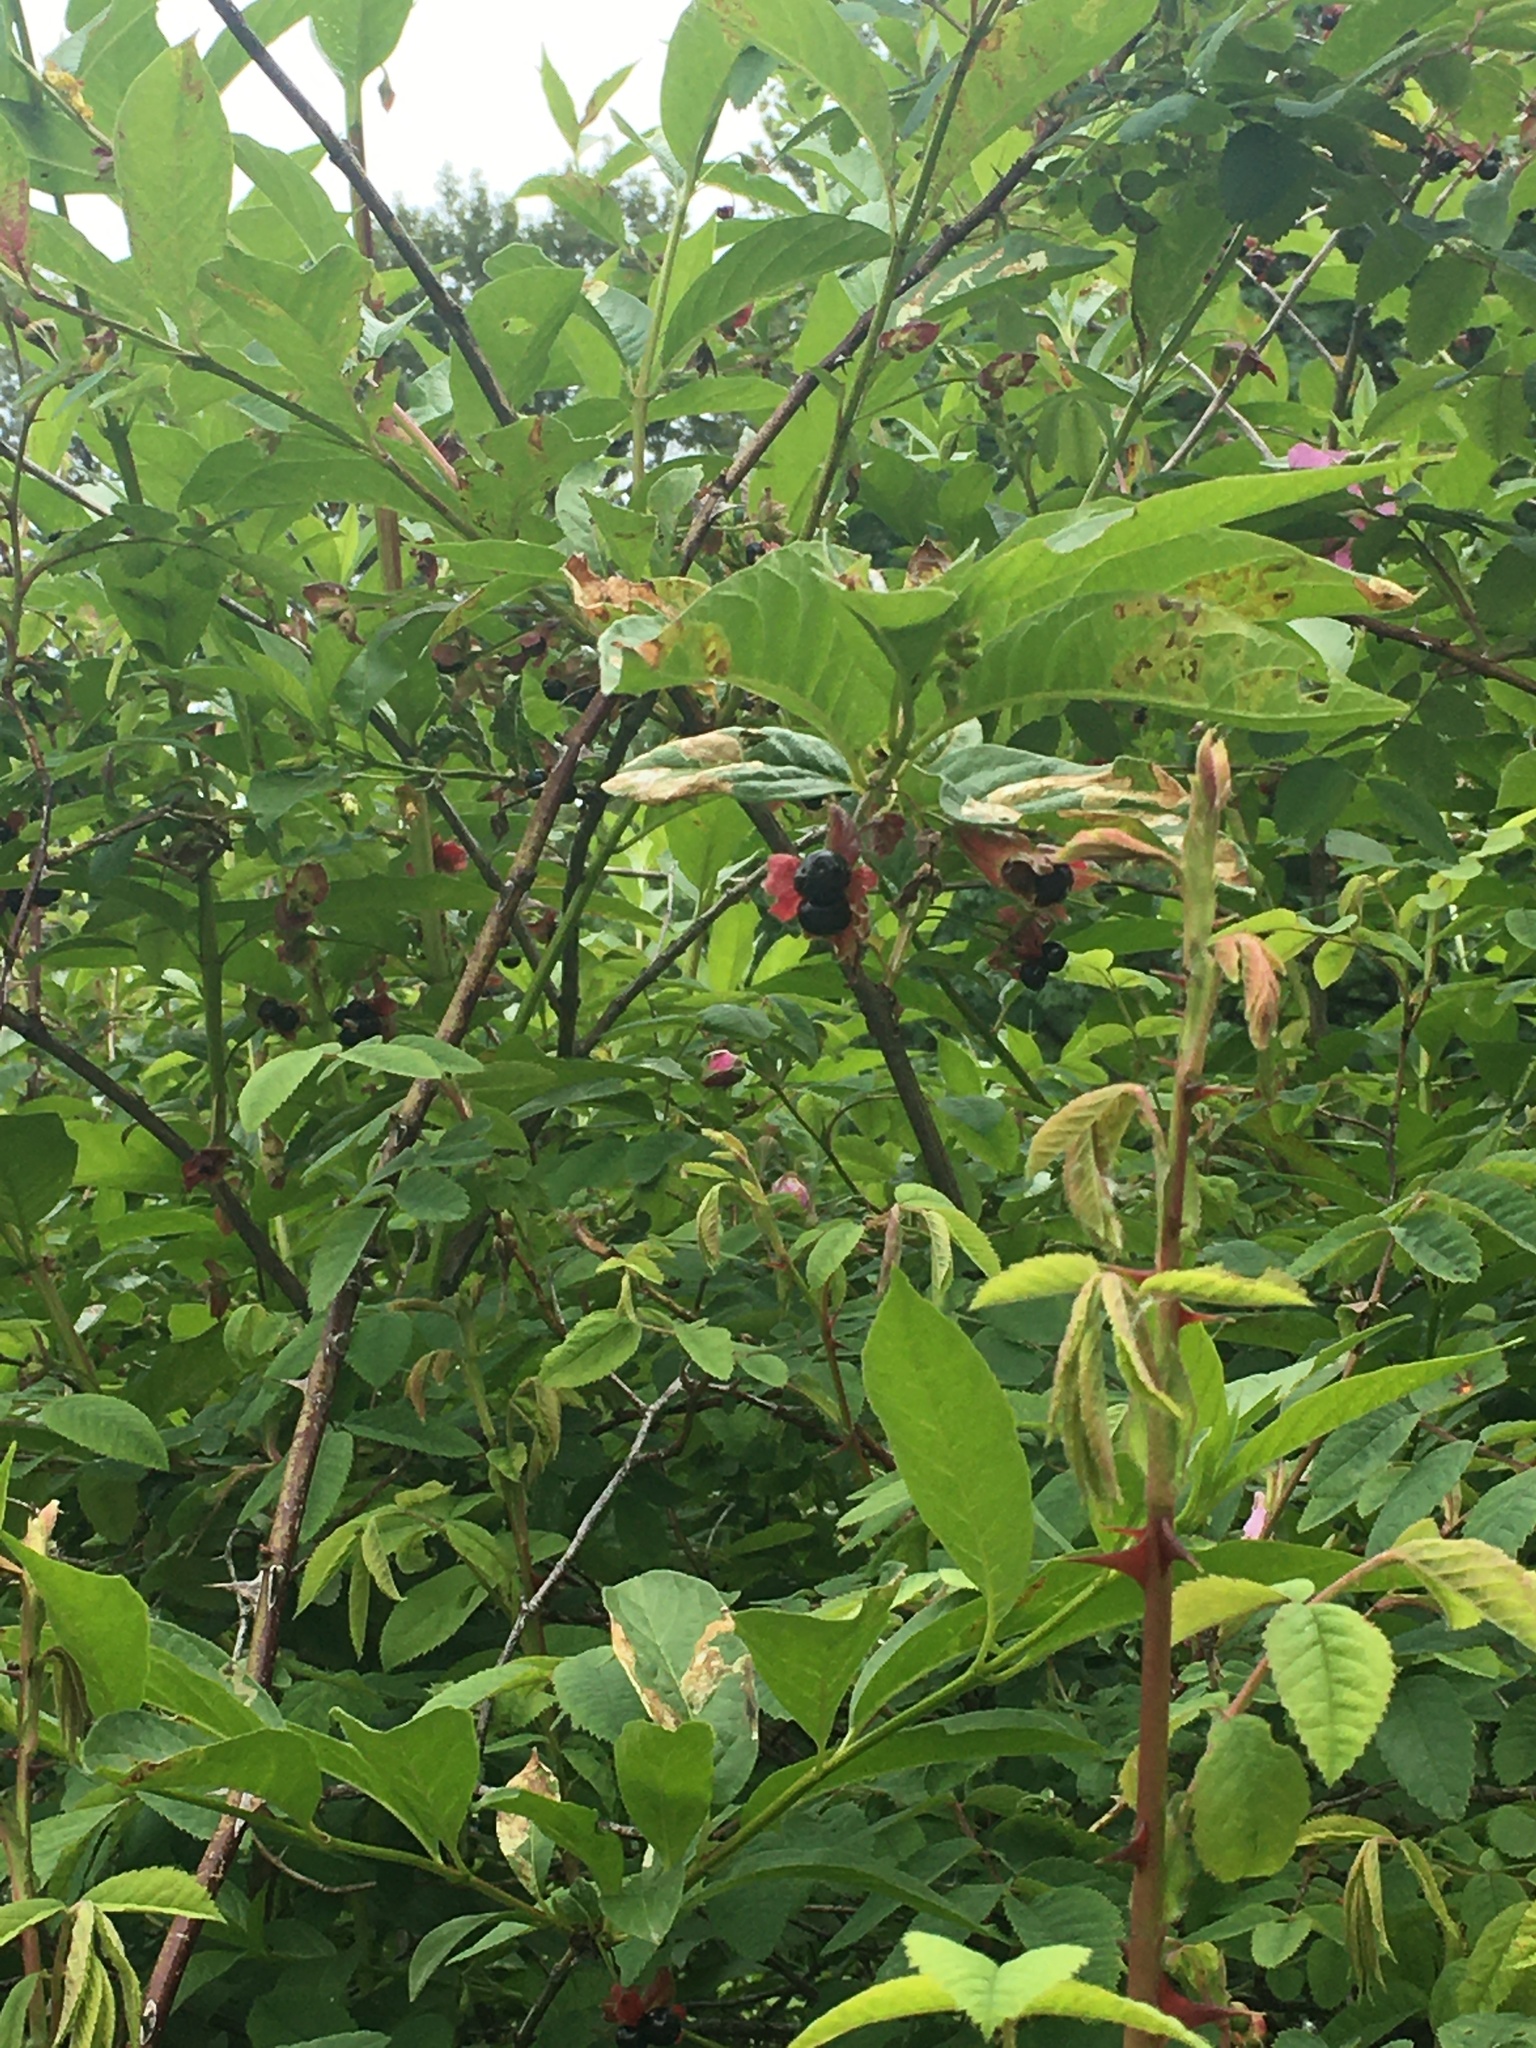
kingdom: Plantae
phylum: Tracheophyta
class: Magnoliopsida
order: Dipsacales
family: Caprifoliaceae
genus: Lonicera
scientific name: Lonicera involucrata
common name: Californian honeysuckle
